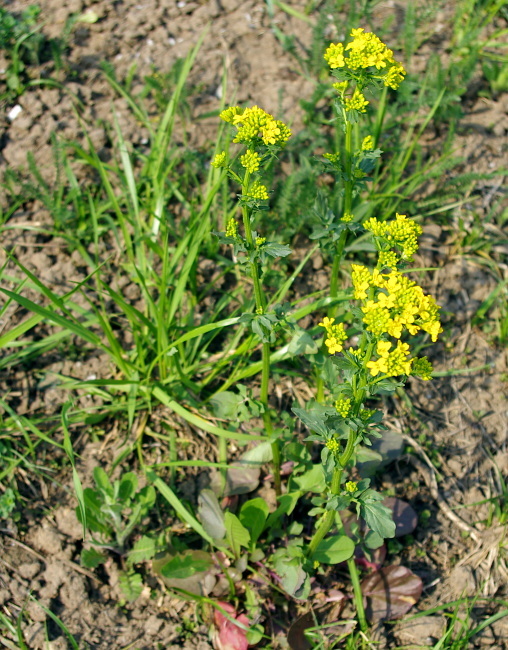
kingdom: Plantae
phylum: Tracheophyta
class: Magnoliopsida
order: Brassicales
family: Brassicaceae
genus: Barbarea
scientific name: Barbarea vulgaris
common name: Cressy-greens
